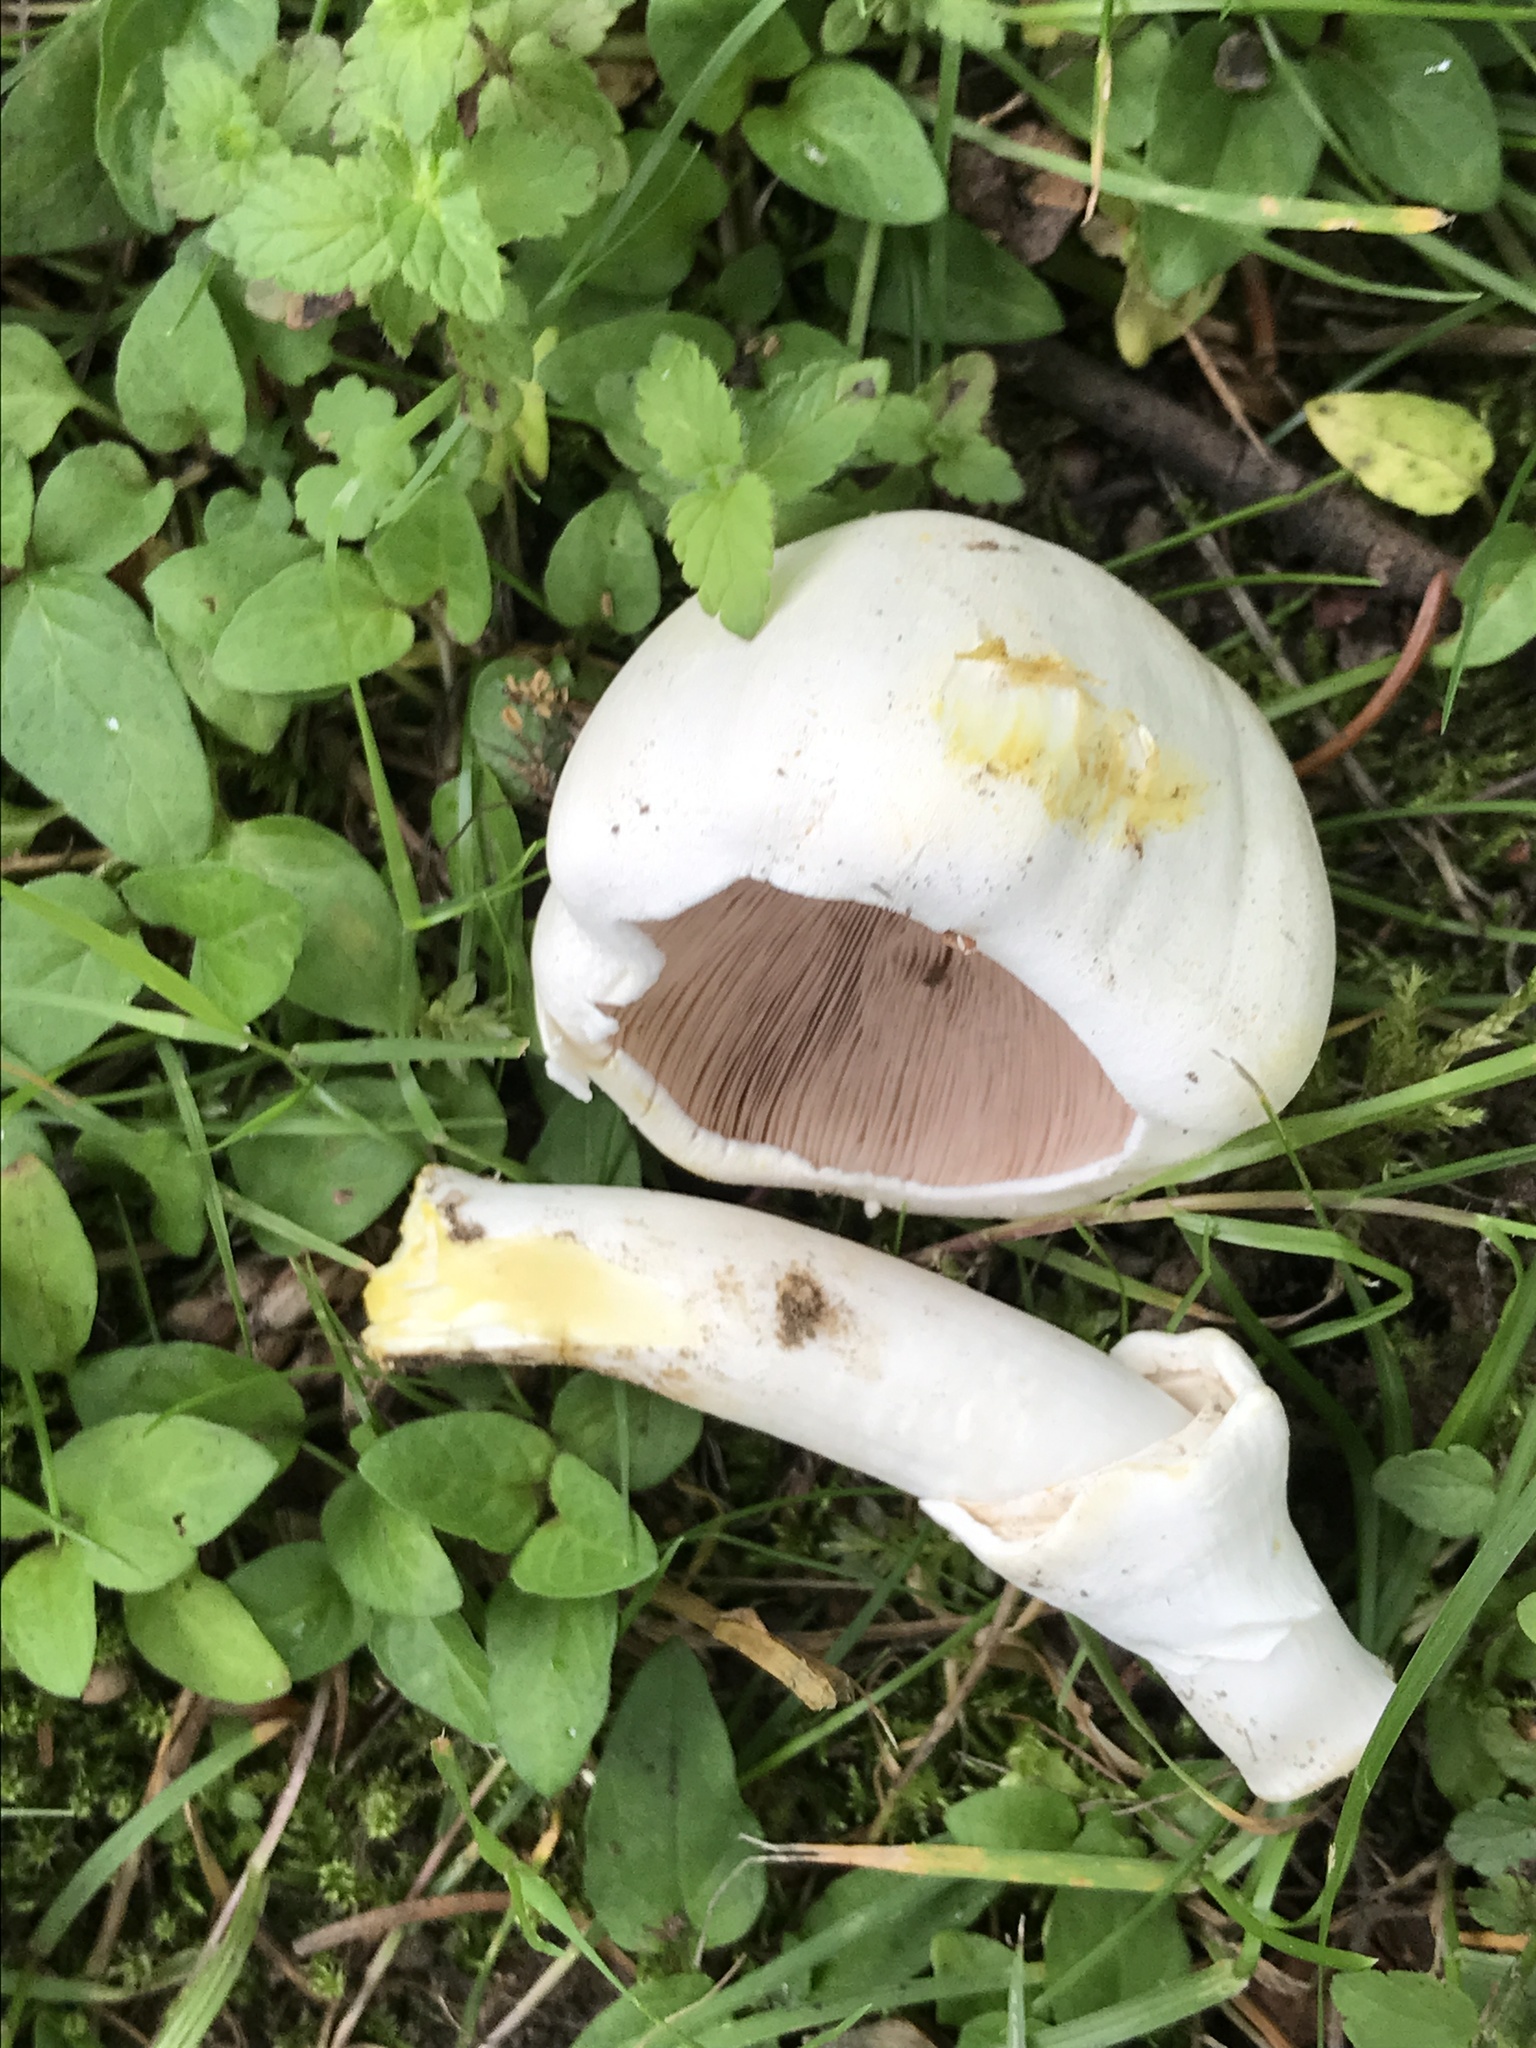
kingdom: Fungi
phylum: Basidiomycota
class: Agaricomycetes
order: Agaricales
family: Agaricaceae
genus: Agaricus
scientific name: Agaricus xanthodermus
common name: Yellow stainer
